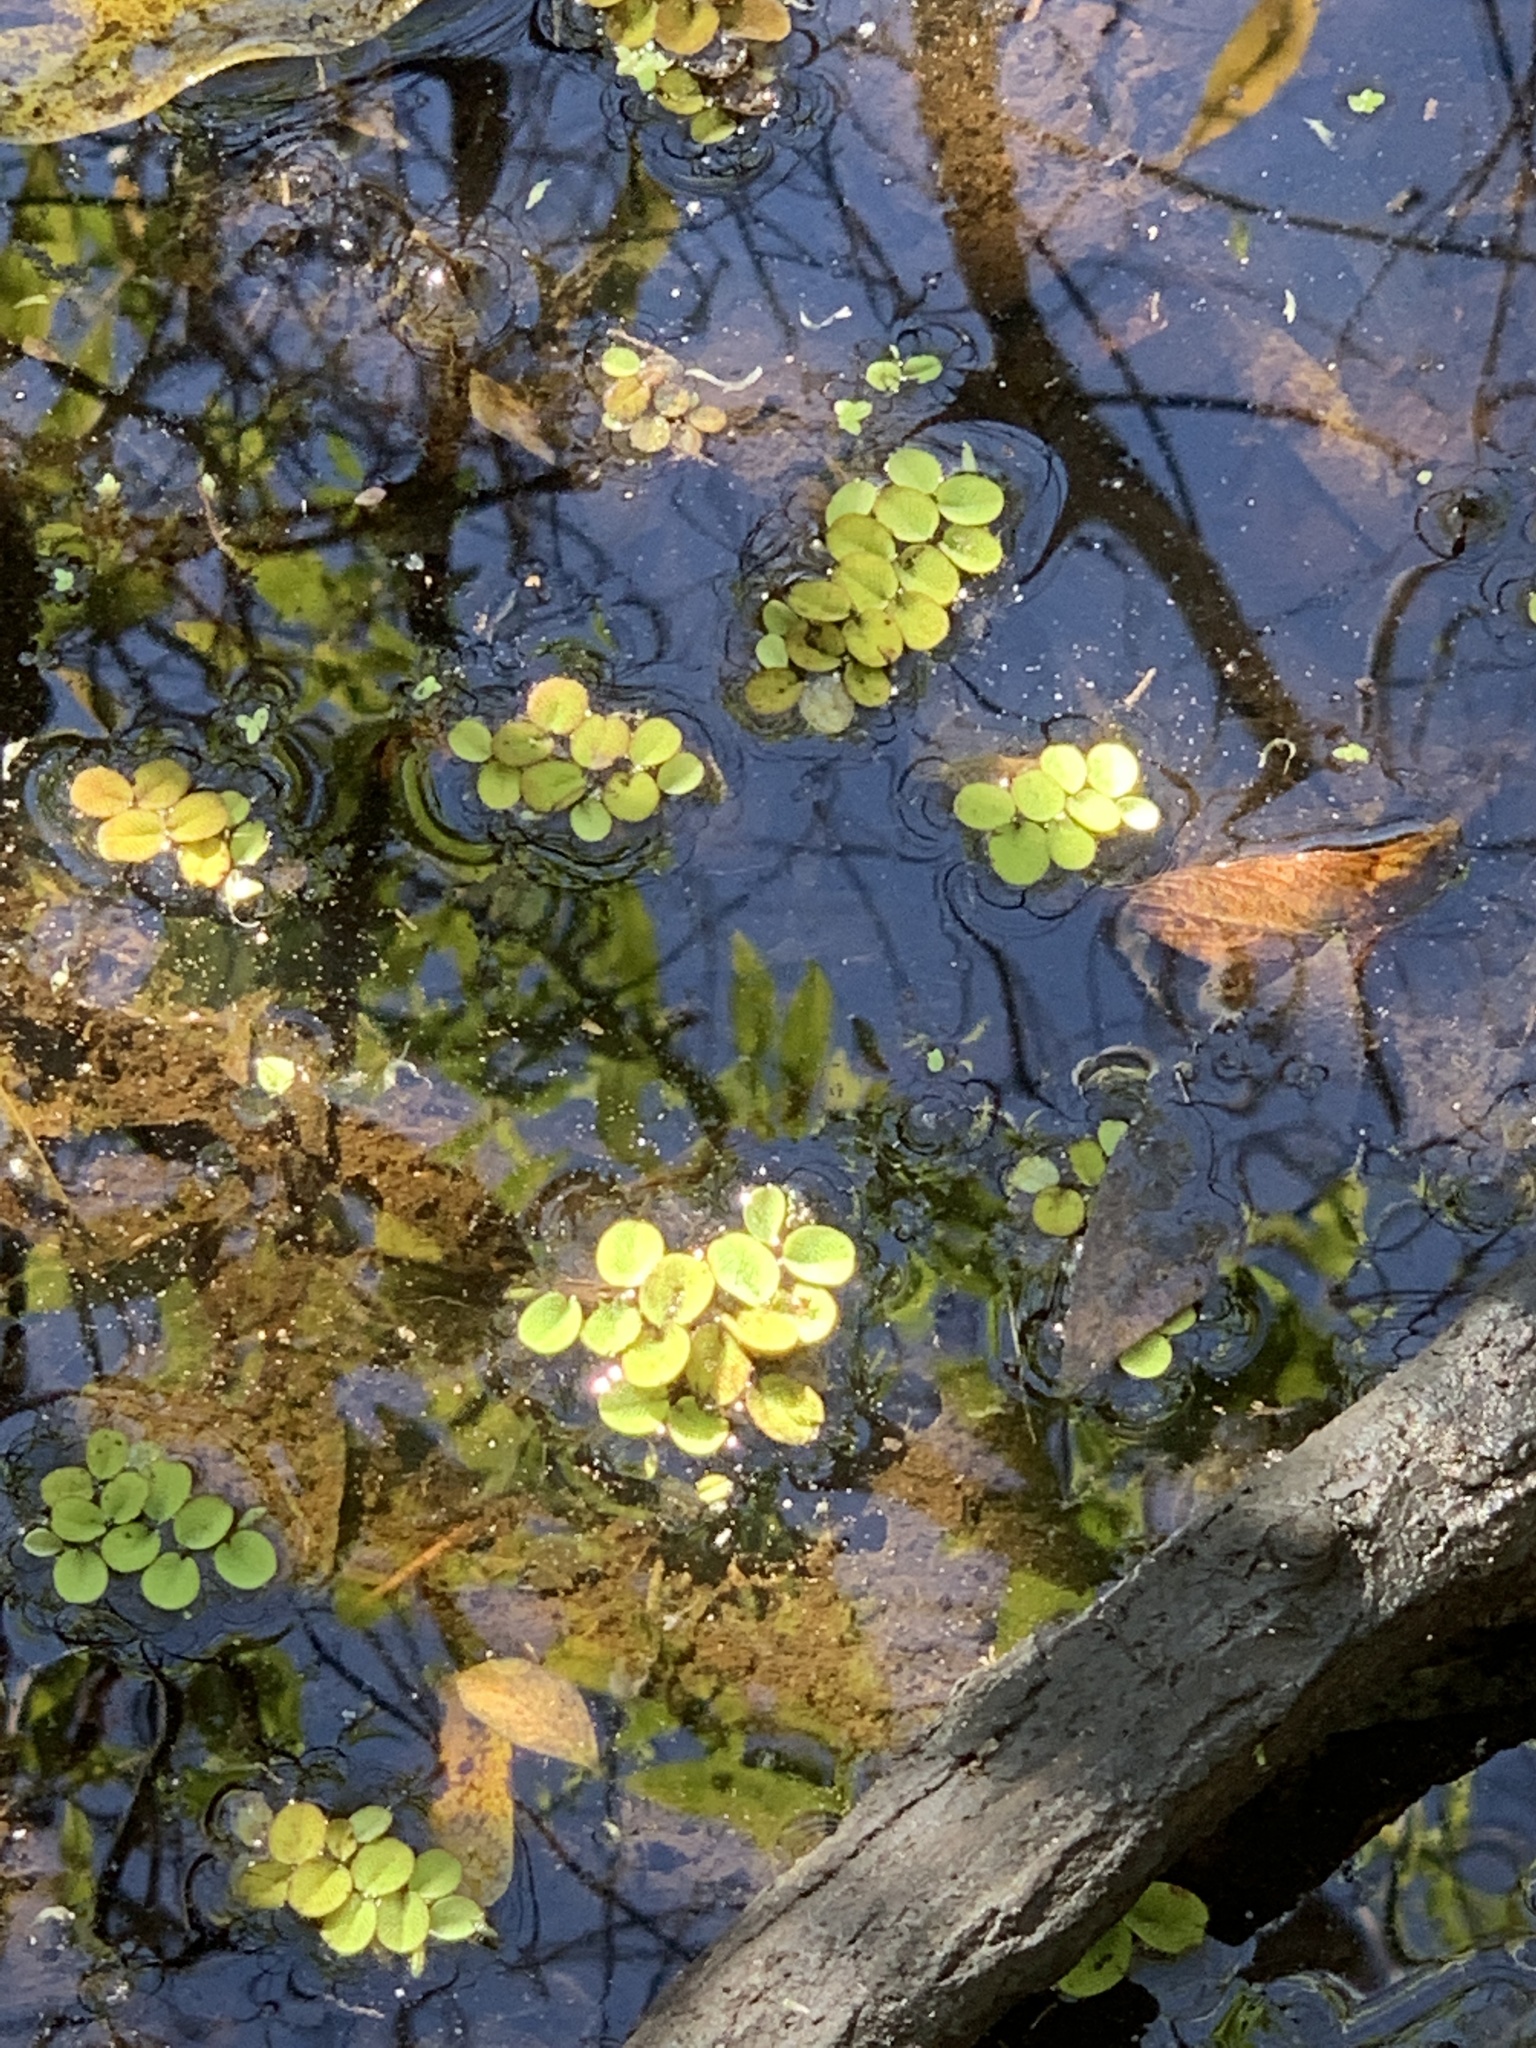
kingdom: Plantae
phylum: Tracheophyta
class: Polypodiopsida
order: Salviniales
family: Salviniaceae
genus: Salvinia
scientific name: Salvinia minima
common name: Water spangles
